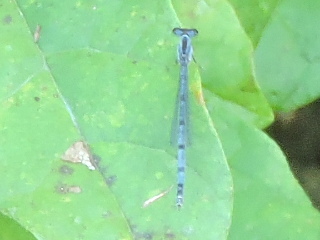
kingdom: Animalia
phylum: Arthropoda
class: Insecta
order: Odonata
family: Coenagrionidae
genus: Ischnura
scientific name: Ischnura verticalis
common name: Eastern forktail
